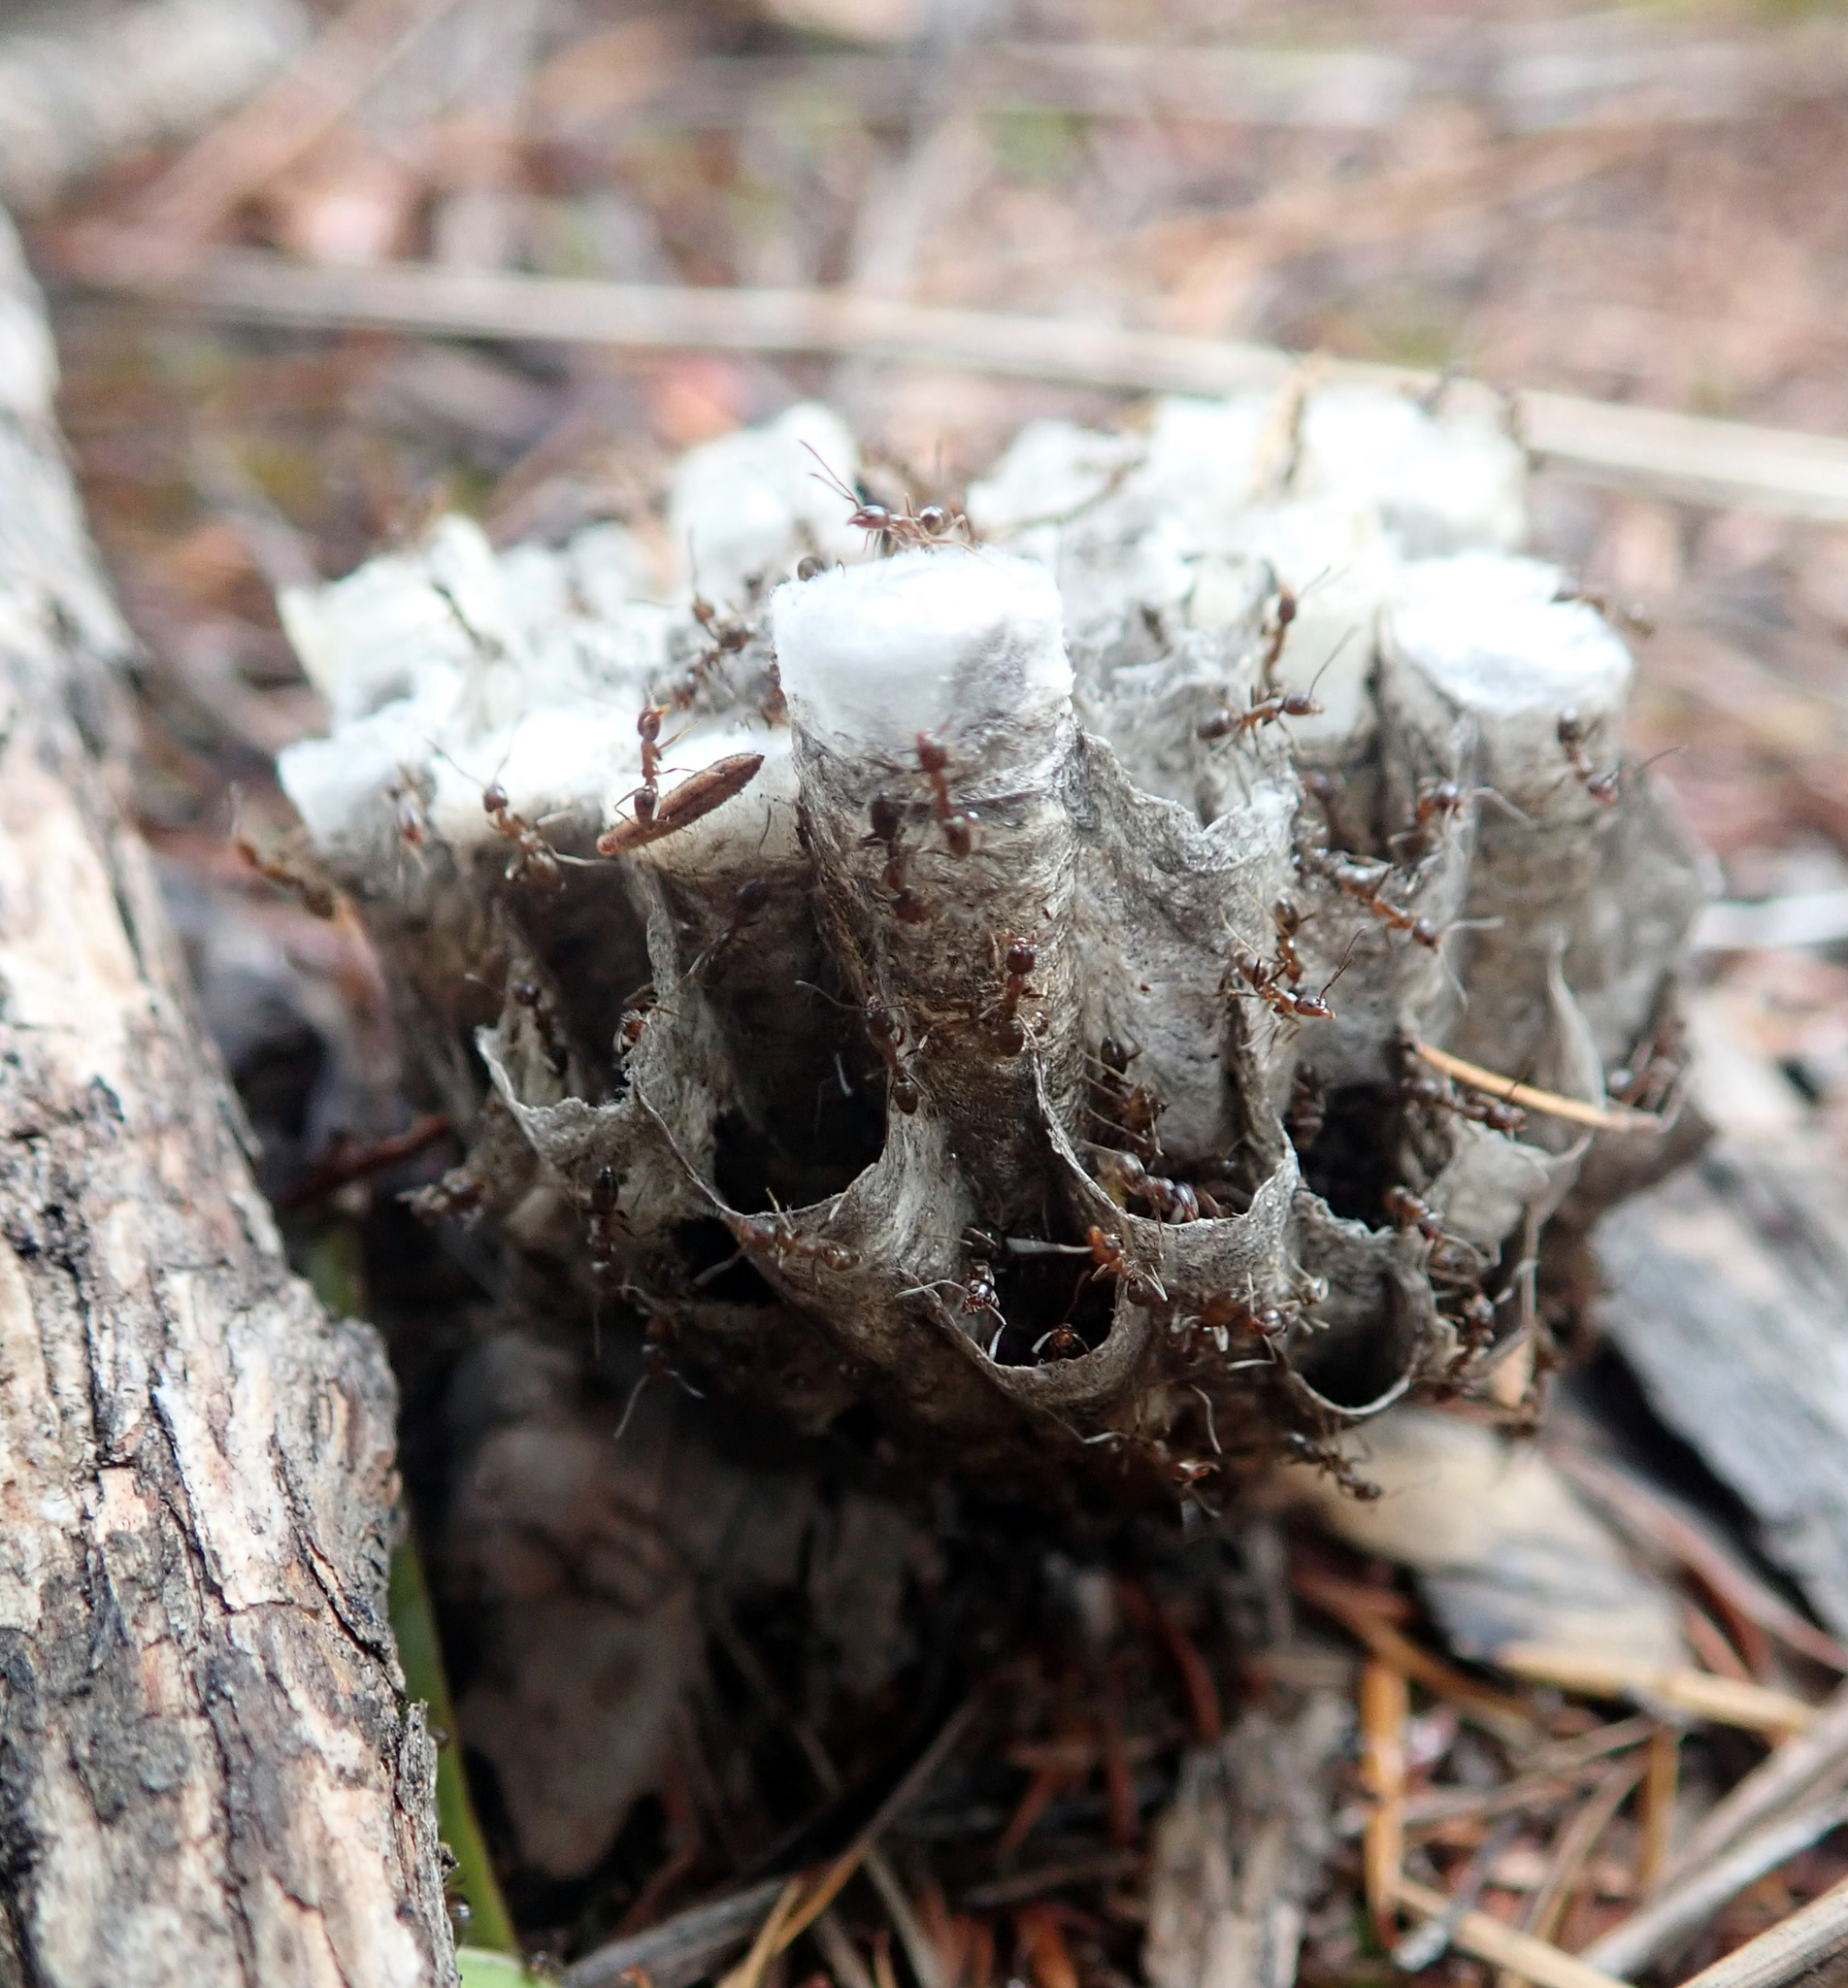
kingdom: Animalia
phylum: Arthropoda
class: Insecta
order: Hymenoptera
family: Formicidae
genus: Linepithema
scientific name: Linepithema humile
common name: Argentine ant
